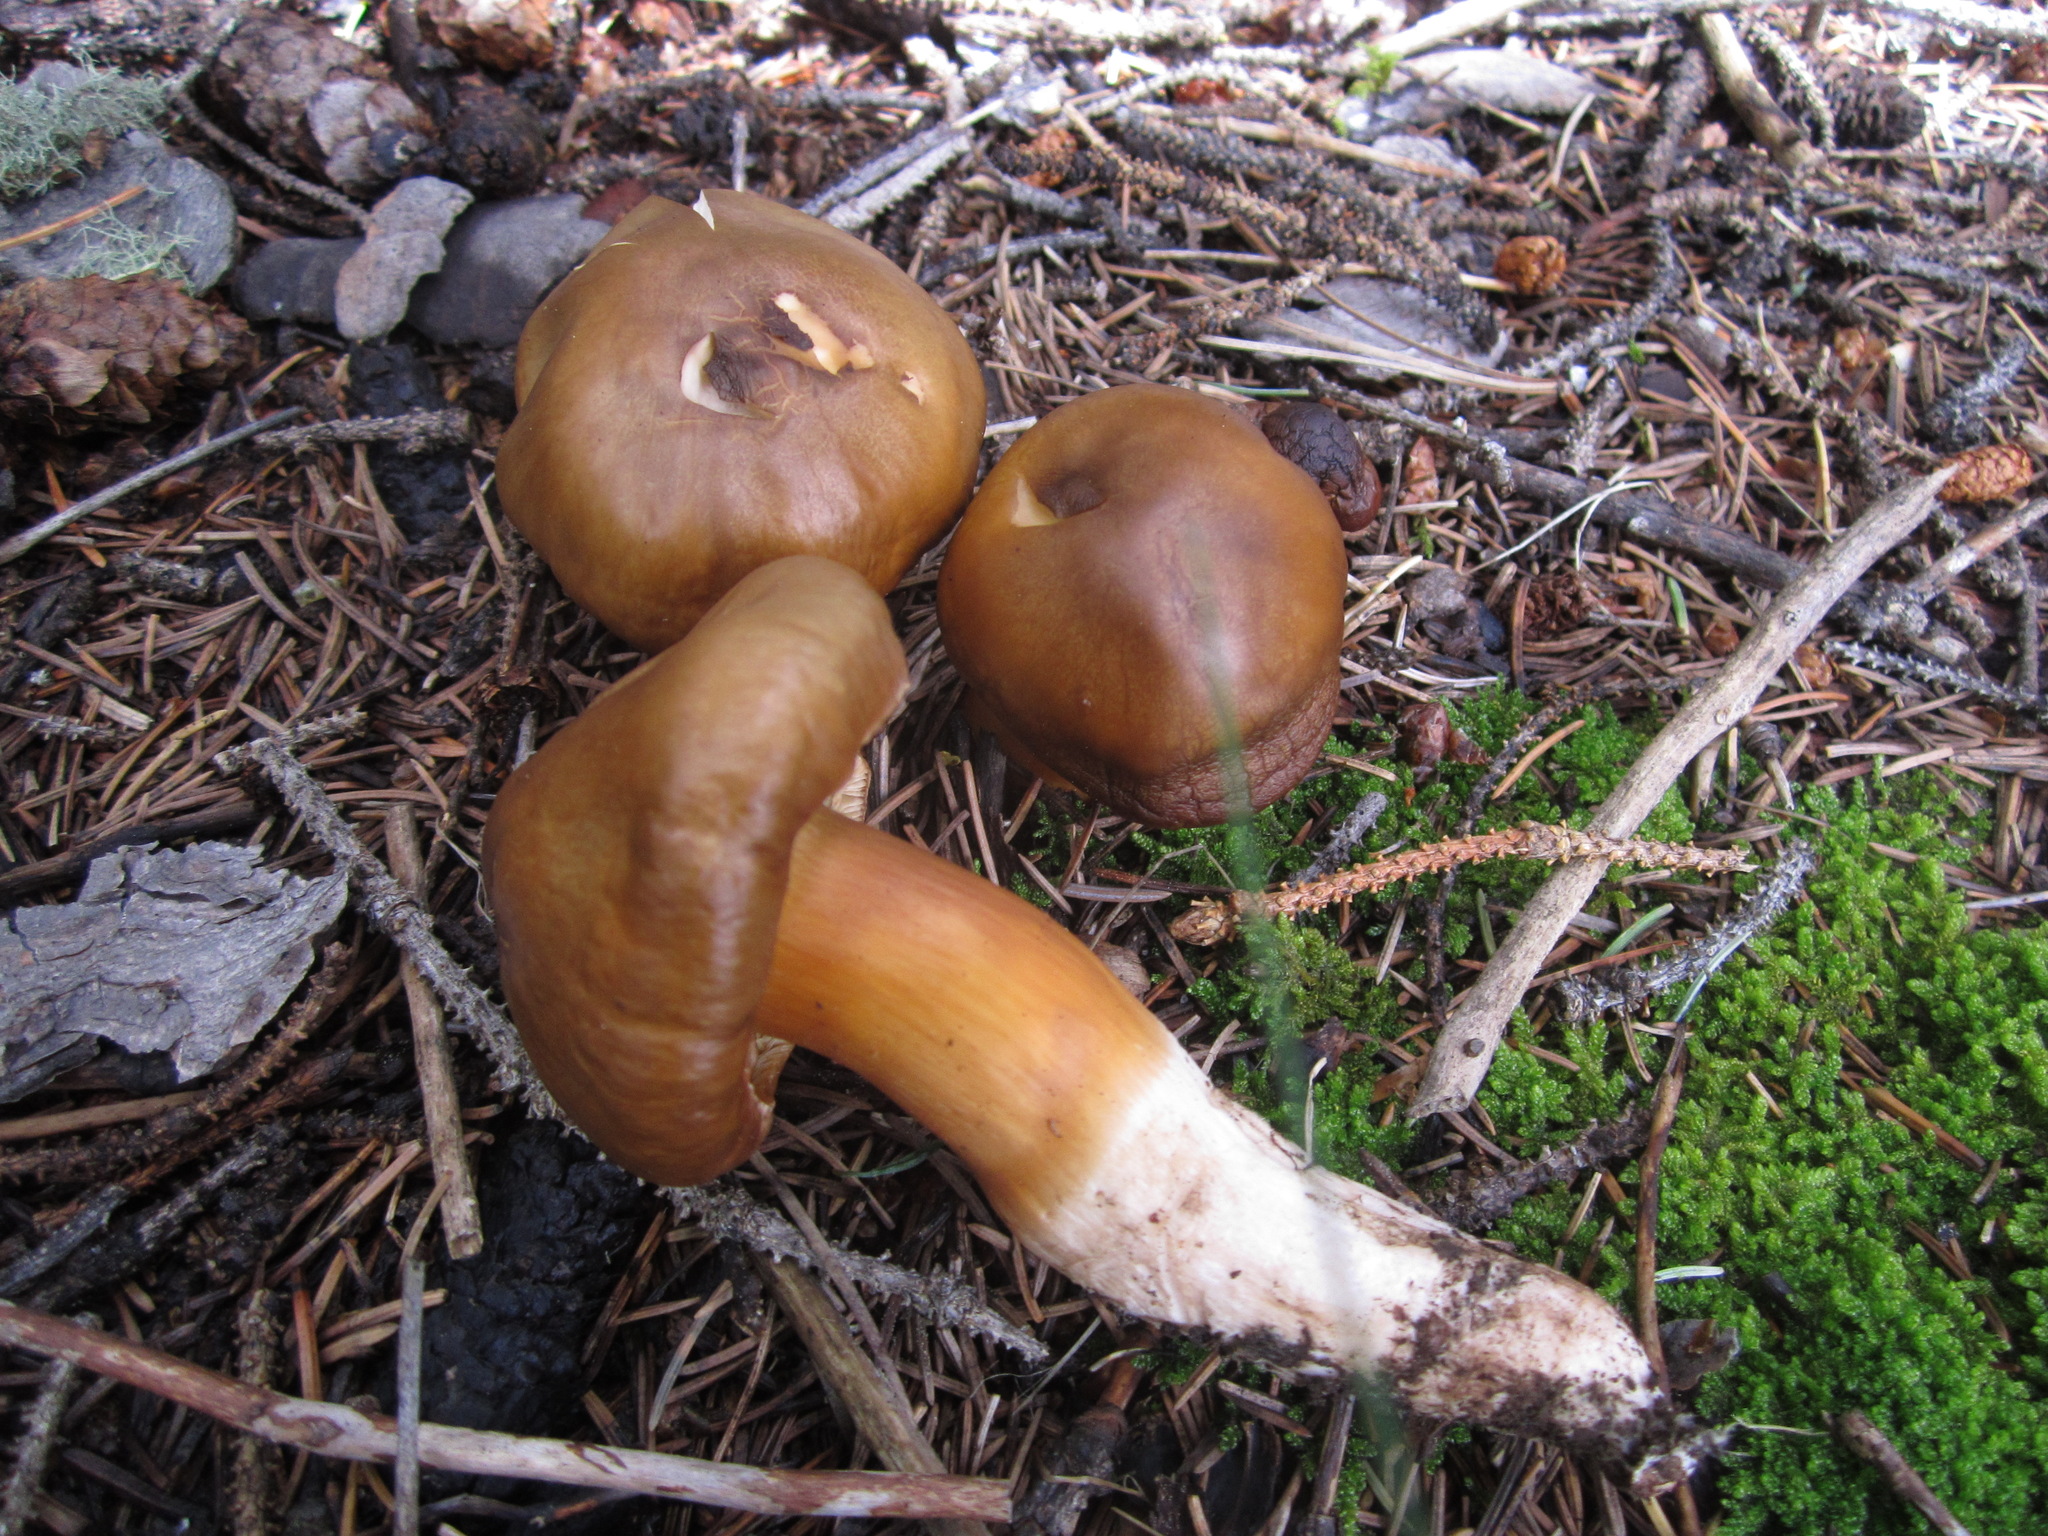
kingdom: Fungi
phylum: Basidiomycota
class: Agaricomycetes
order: Agaricales
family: Tricholomataceae
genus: Tricholoma
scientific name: Tricholoma pessundatum
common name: Tacked knight
